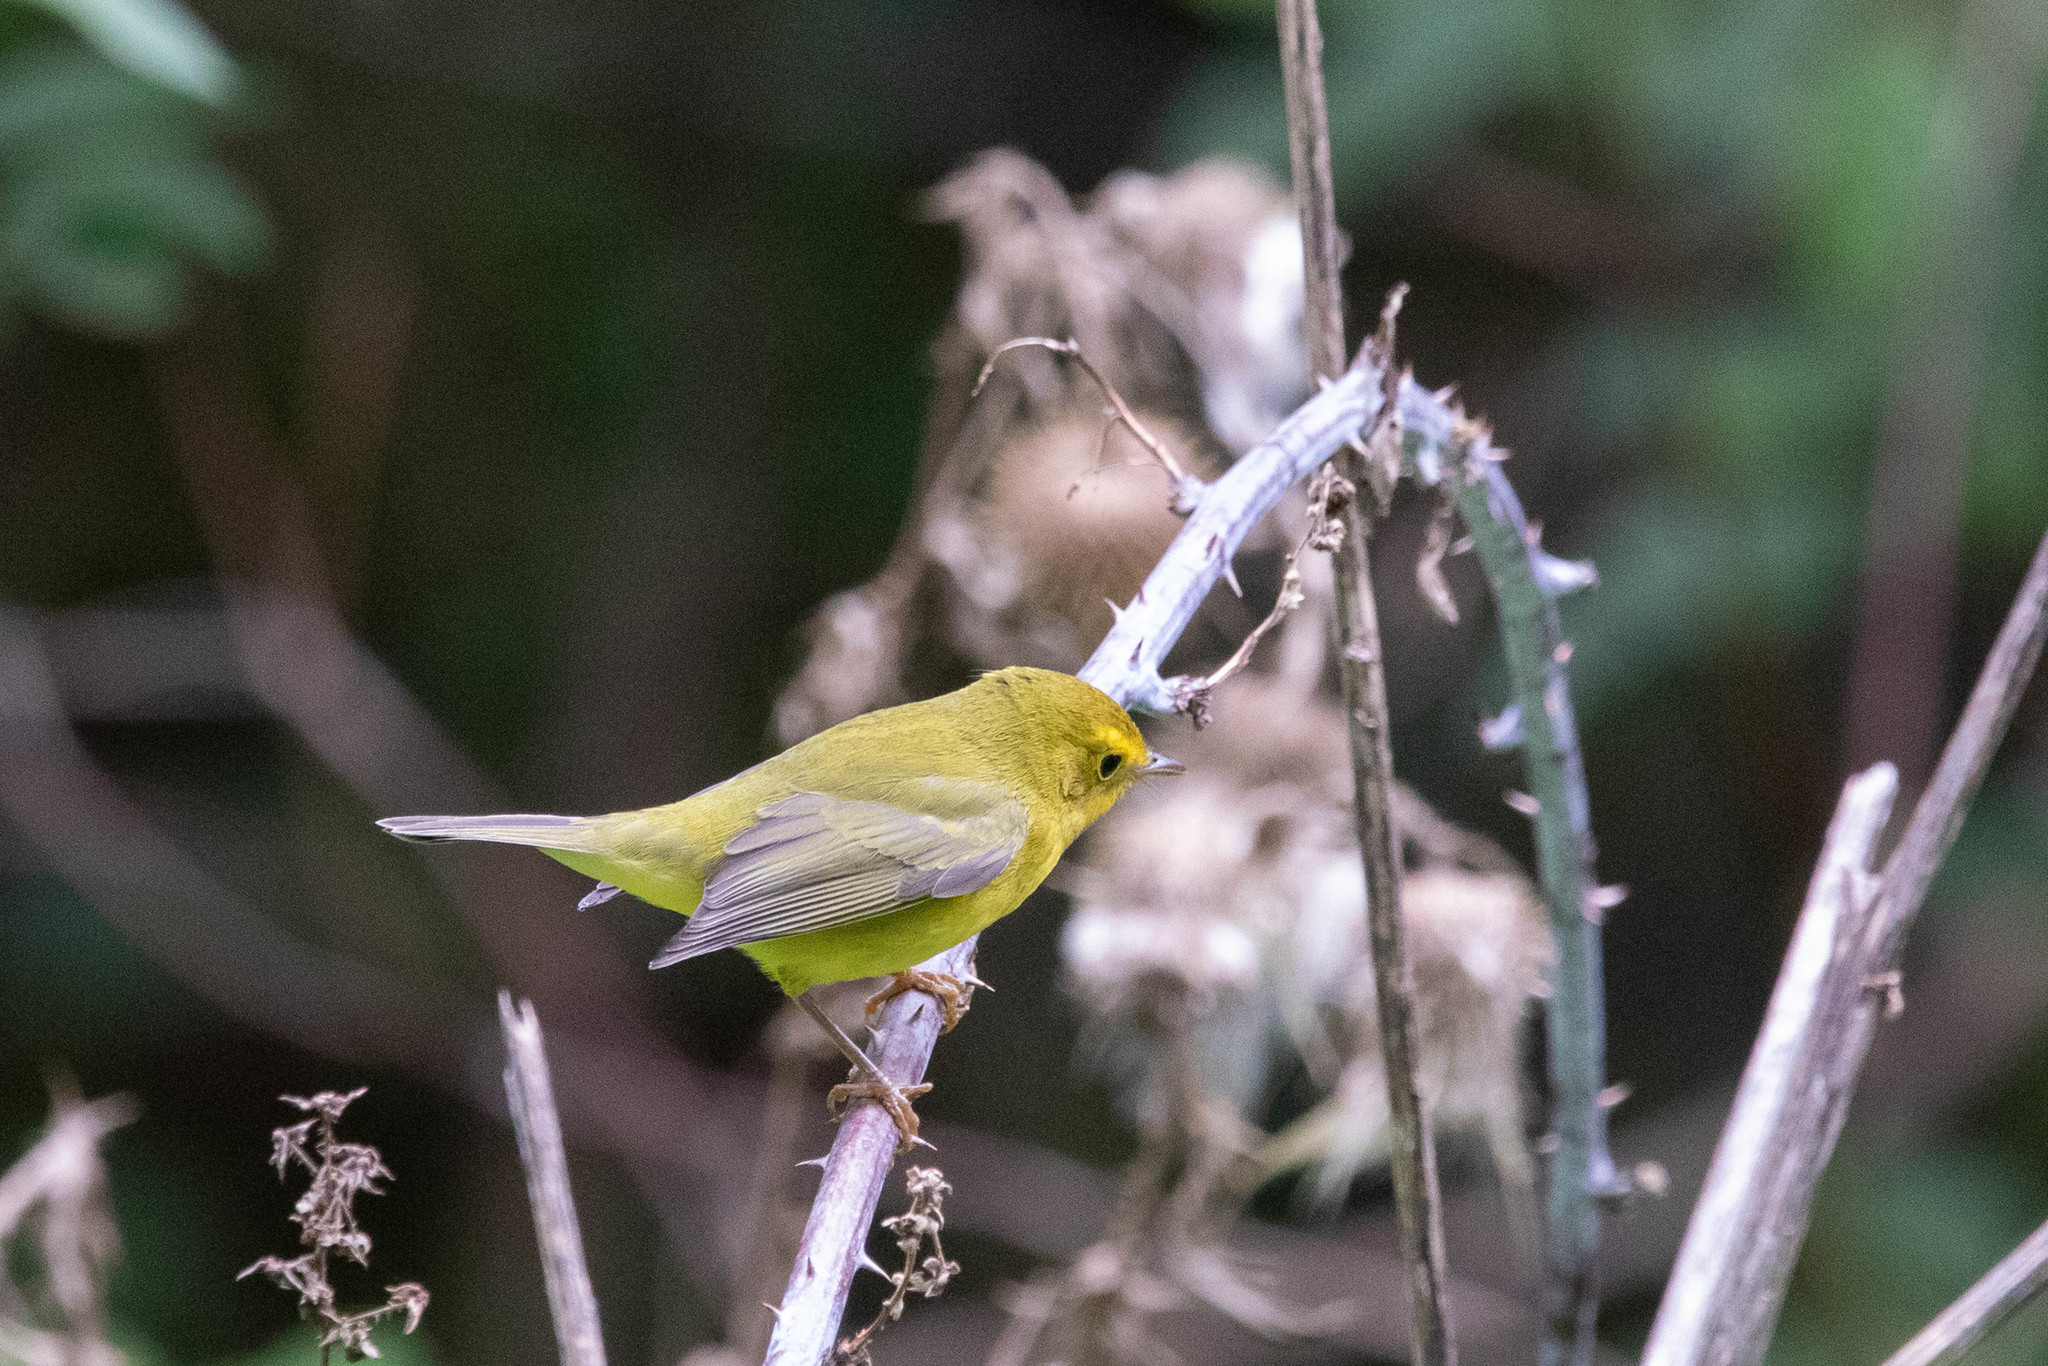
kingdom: Animalia
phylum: Chordata
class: Aves
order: Passeriformes
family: Parulidae
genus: Cardellina
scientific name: Cardellina pusilla
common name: Wilson's warbler
